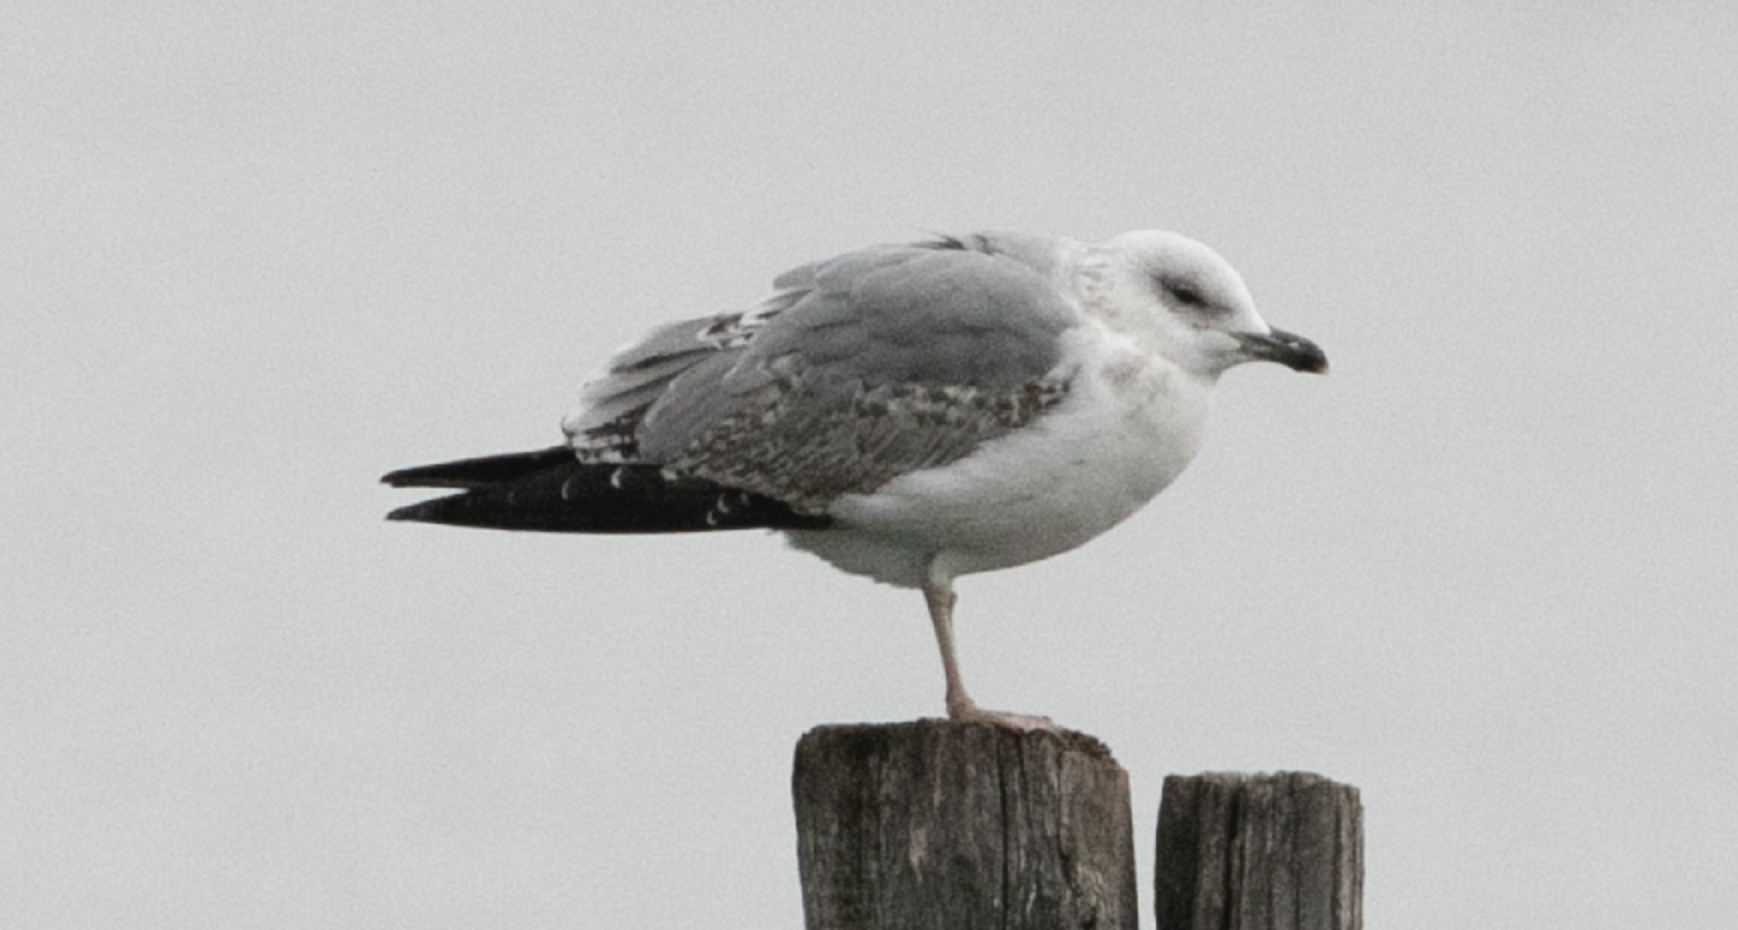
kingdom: Animalia
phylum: Chordata
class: Aves
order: Charadriiformes
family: Laridae
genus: Larus
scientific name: Larus michahellis
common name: Yellow-legged gull
